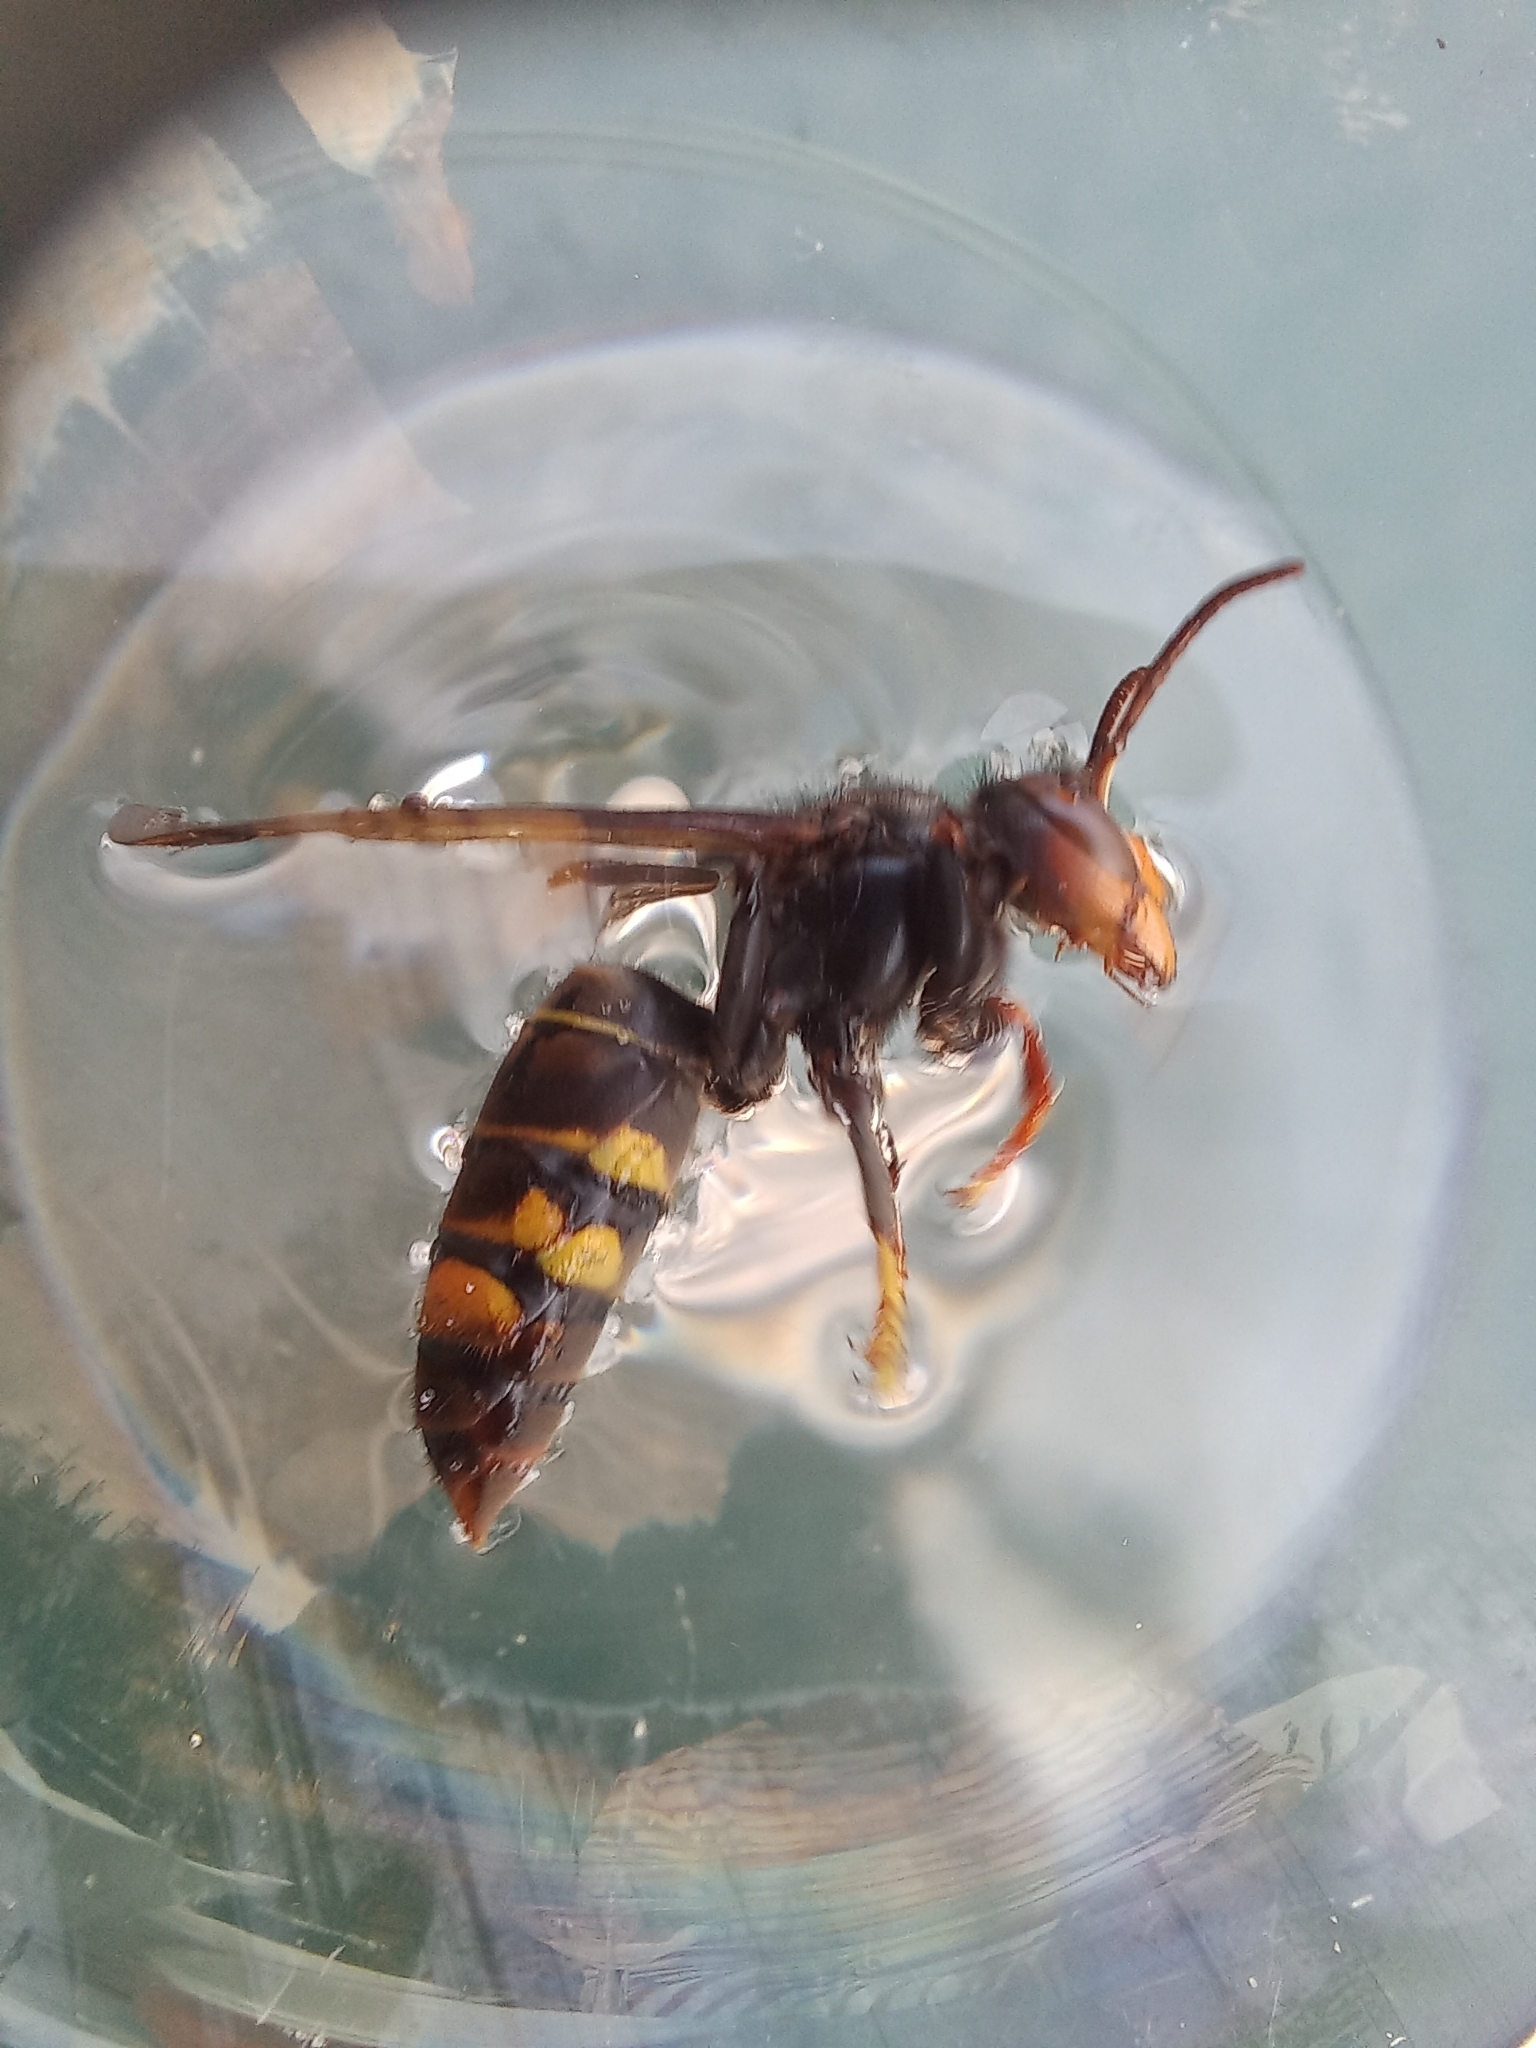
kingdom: Animalia
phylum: Arthropoda
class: Insecta
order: Hymenoptera
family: Vespidae
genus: Vespa
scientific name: Vespa velutina
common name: Asian hornet
